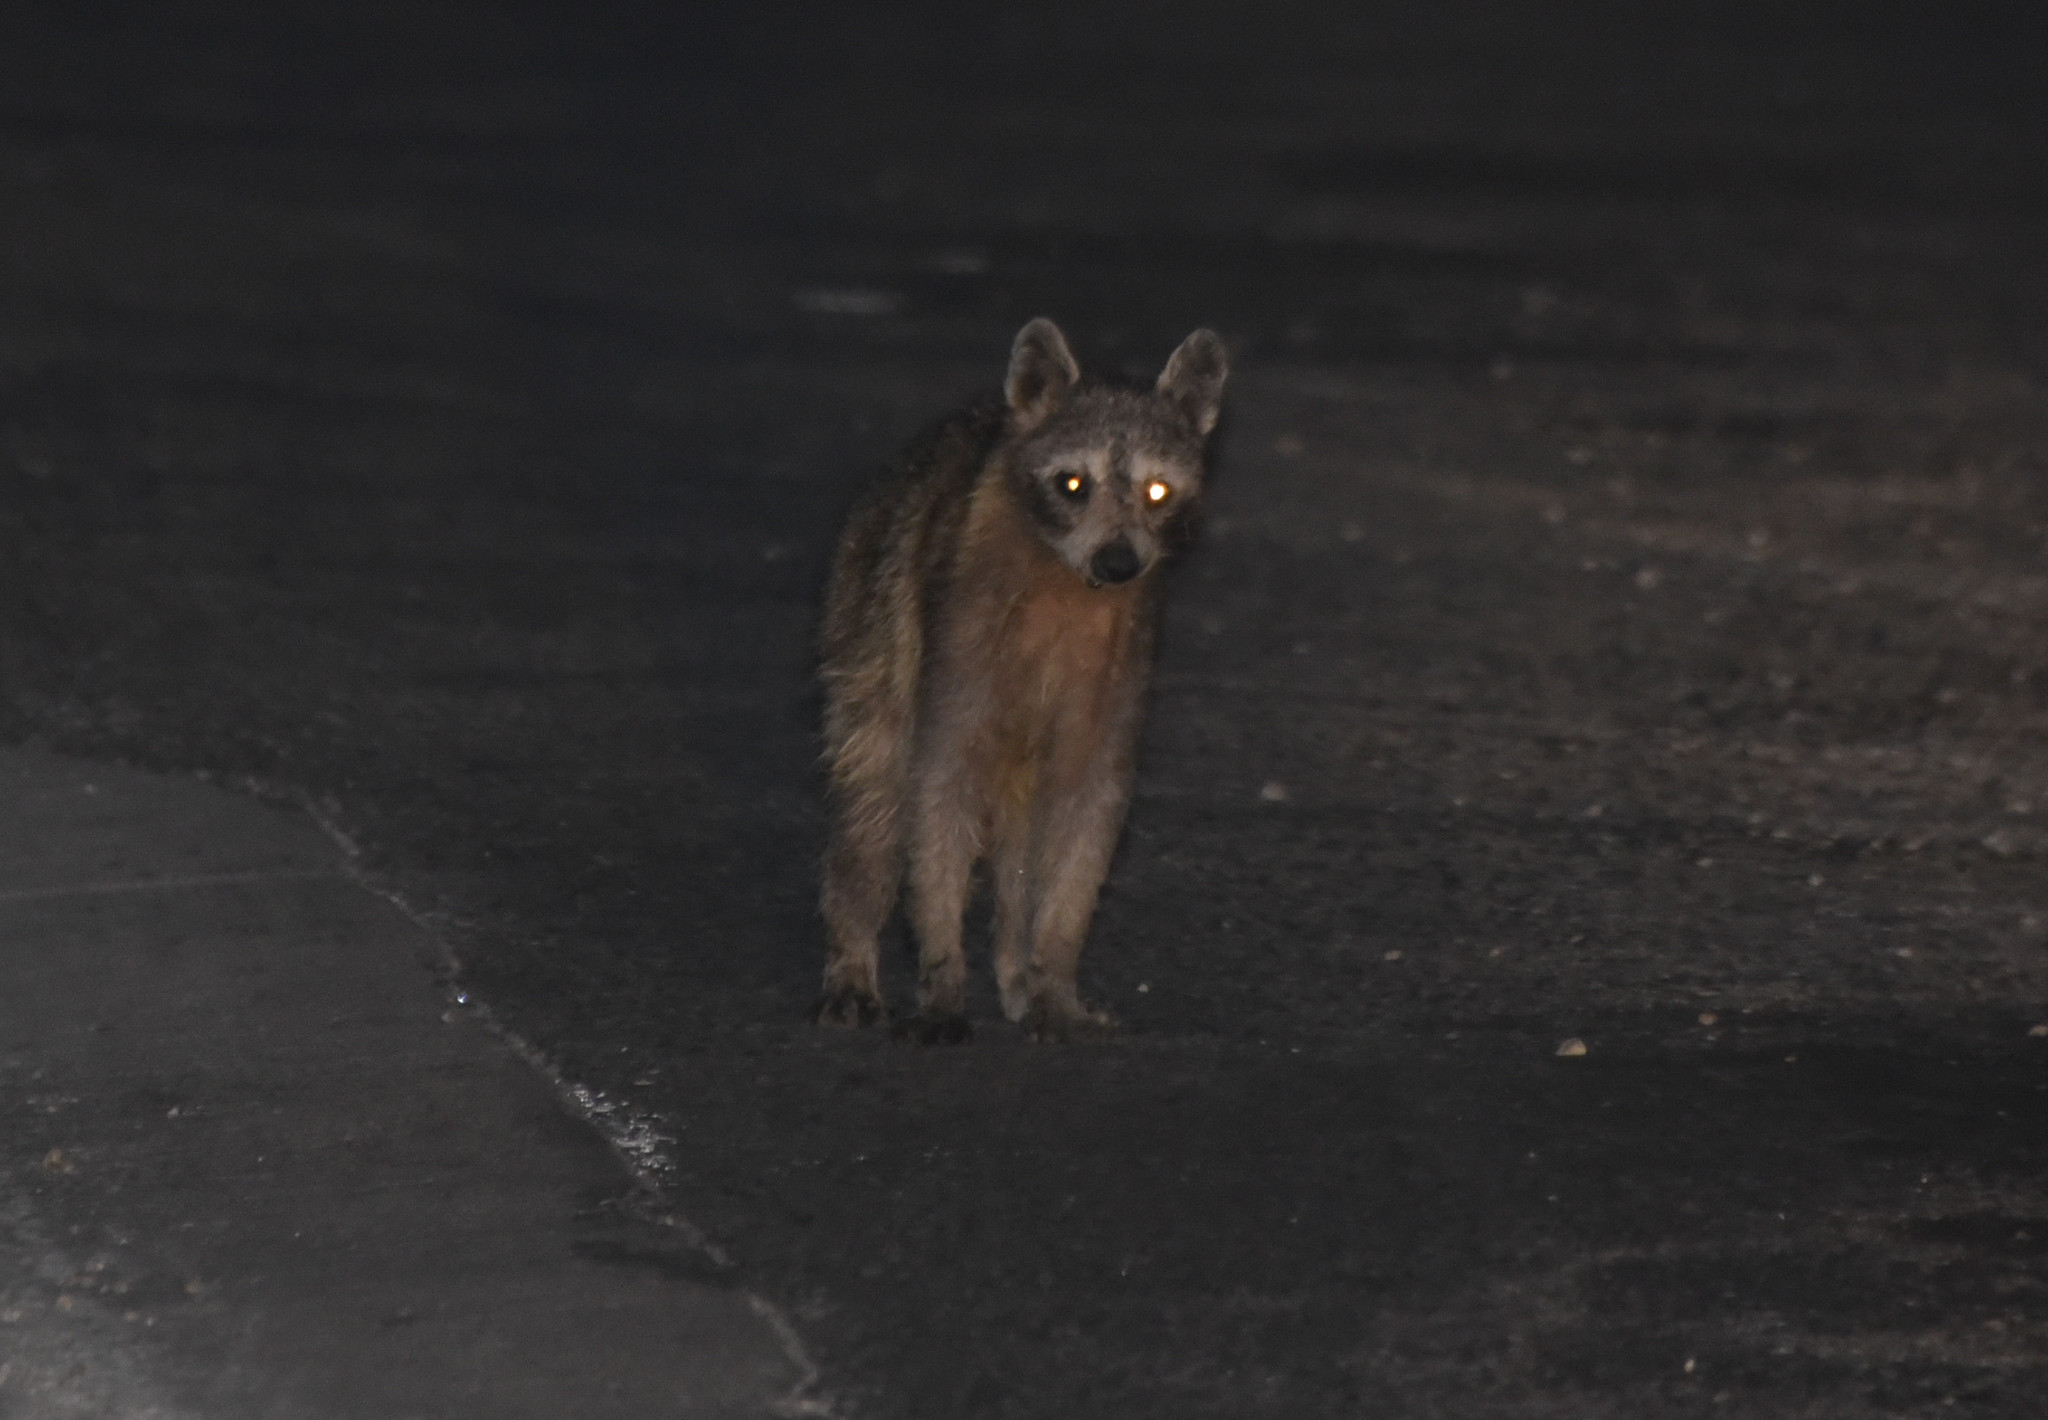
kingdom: Animalia
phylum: Chordata
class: Mammalia
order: Carnivora
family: Procyonidae
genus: Procyon
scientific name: Procyon lotor
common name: Raccoon
